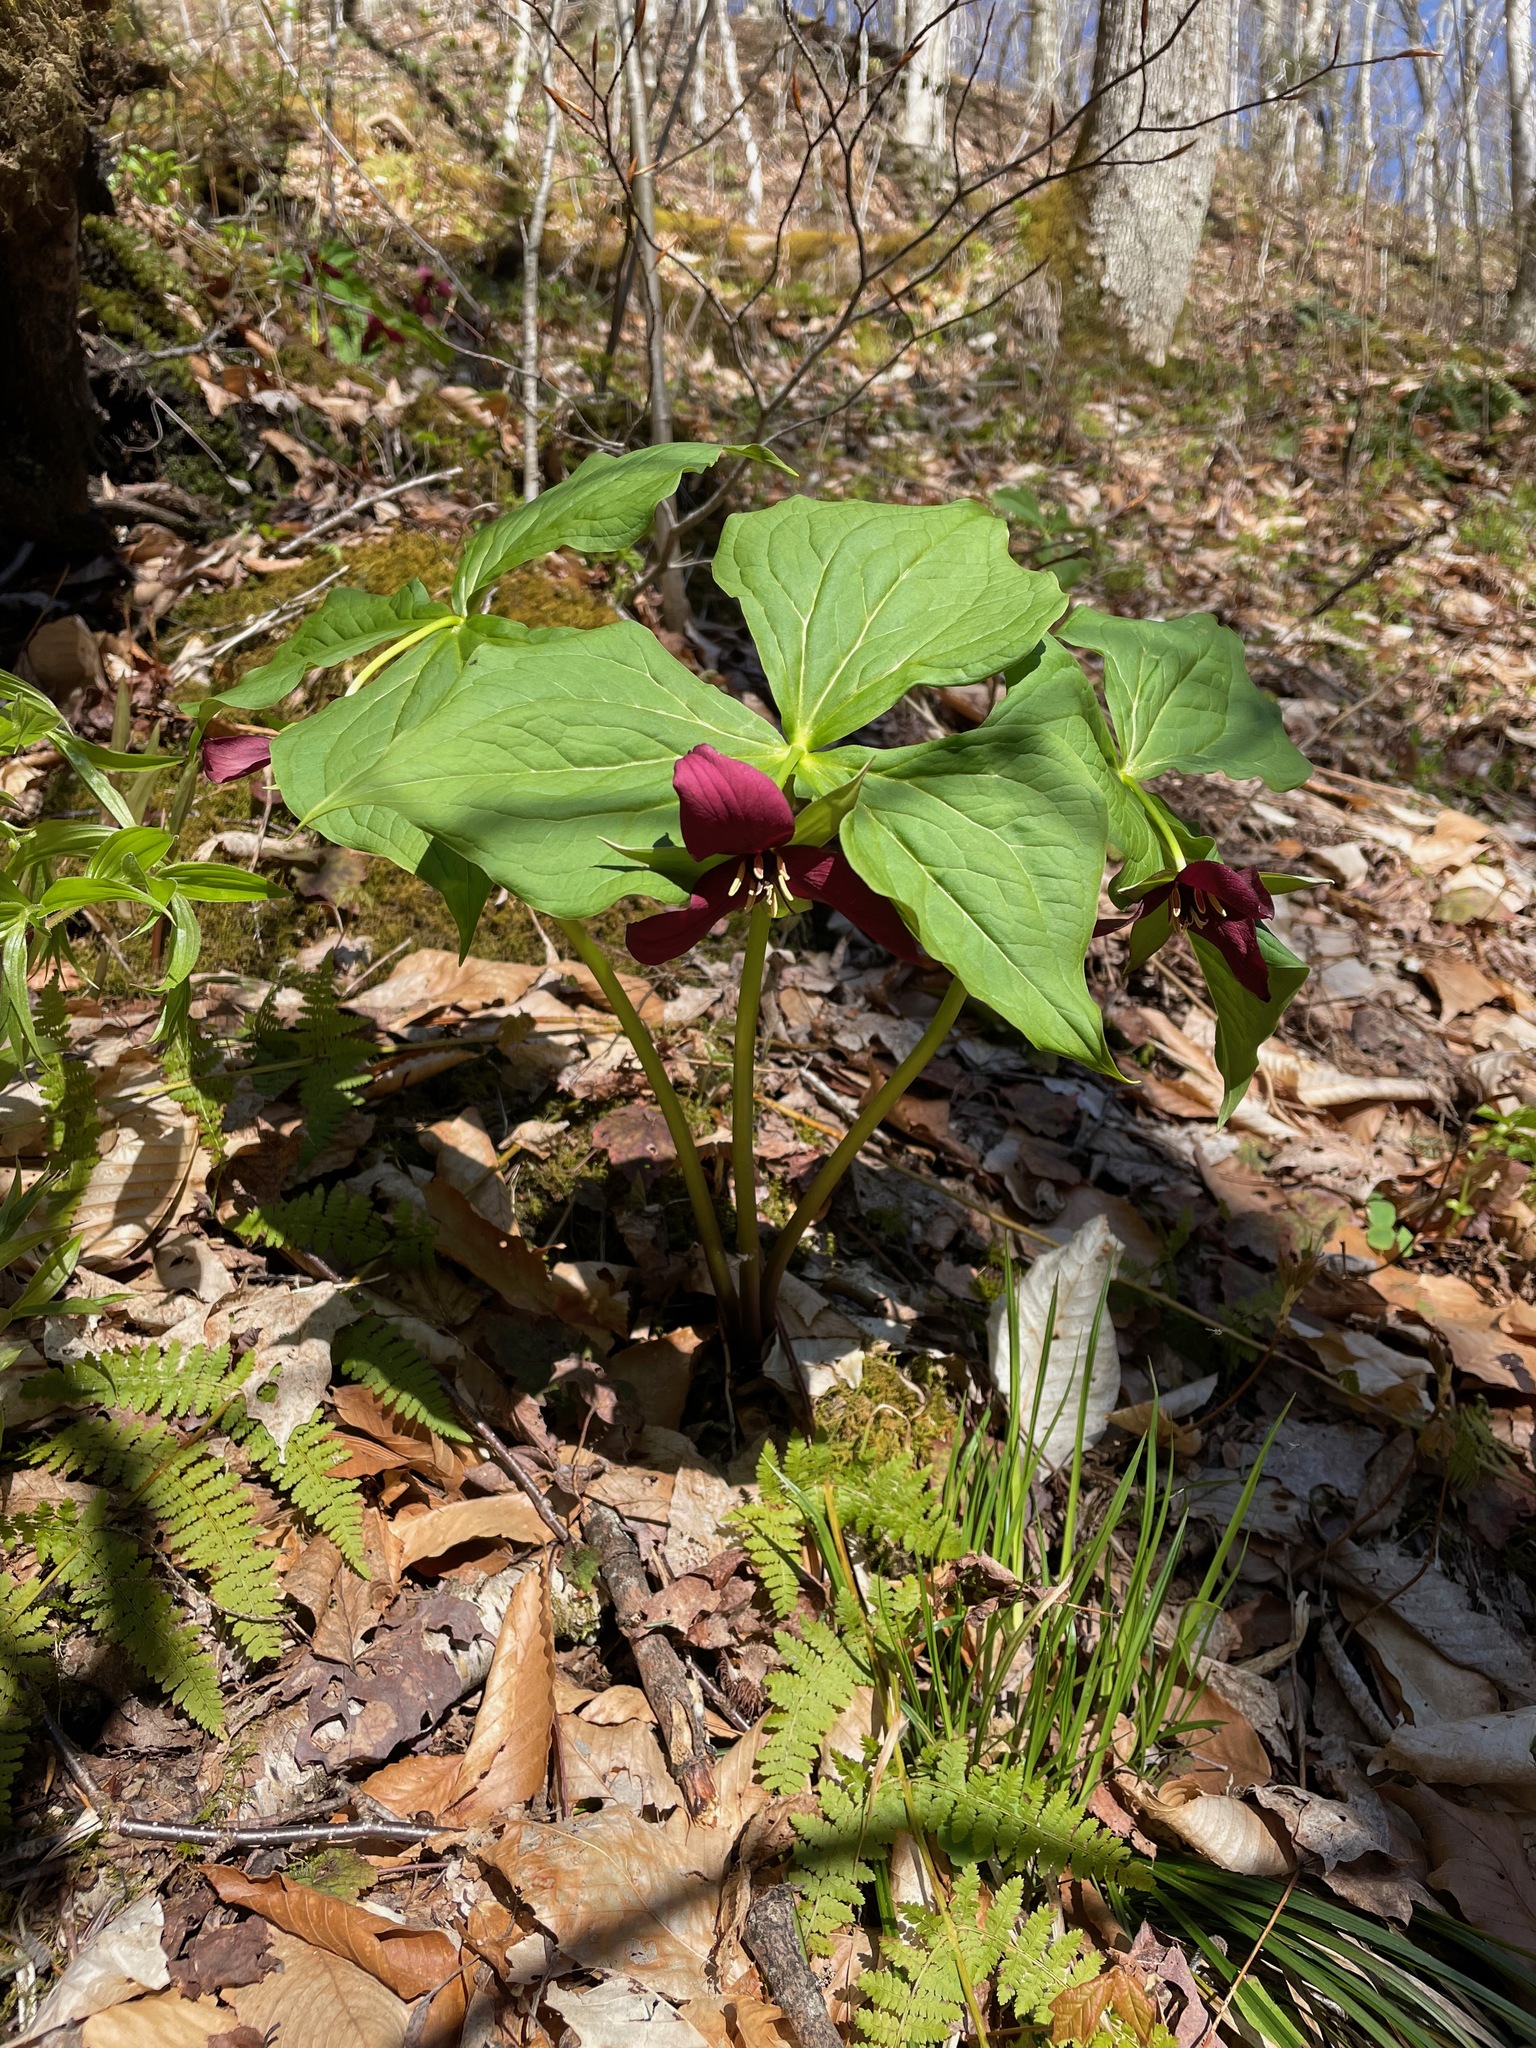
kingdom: Plantae
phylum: Tracheophyta
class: Liliopsida
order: Liliales
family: Melanthiaceae
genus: Trillium
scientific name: Trillium erectum
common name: Purple trillium
